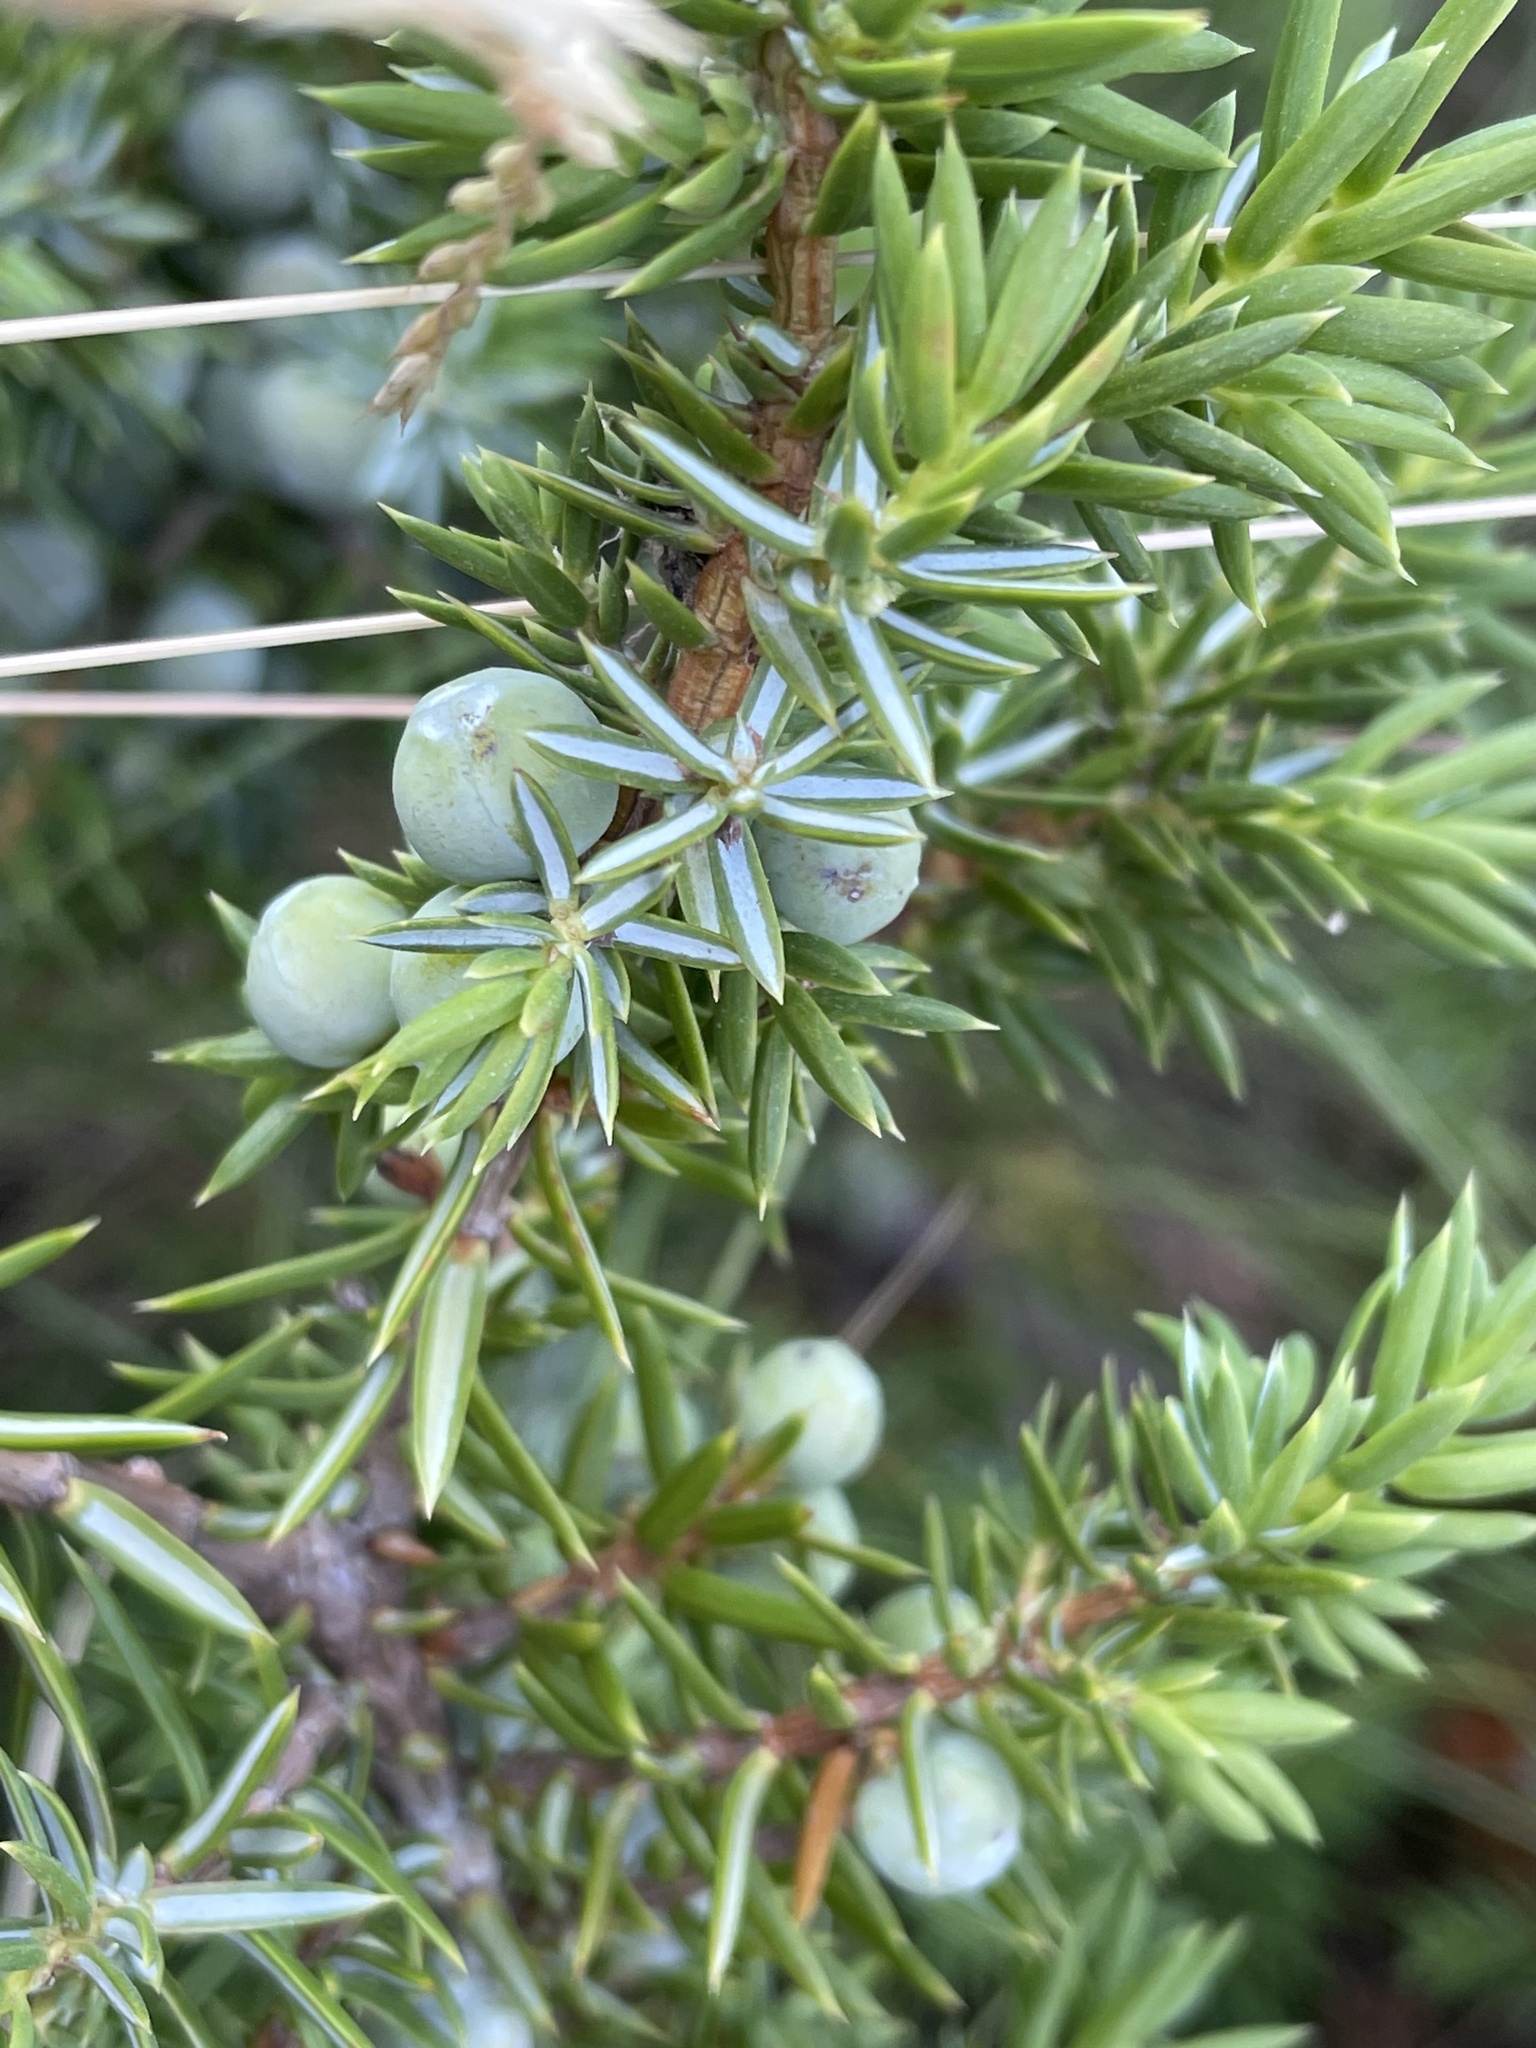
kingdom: Plantae
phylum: Tracheophyta
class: Pinopsida
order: Pinales
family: Cupressaceae
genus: Juniperus
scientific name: Juniperus communis
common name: Common juniper
